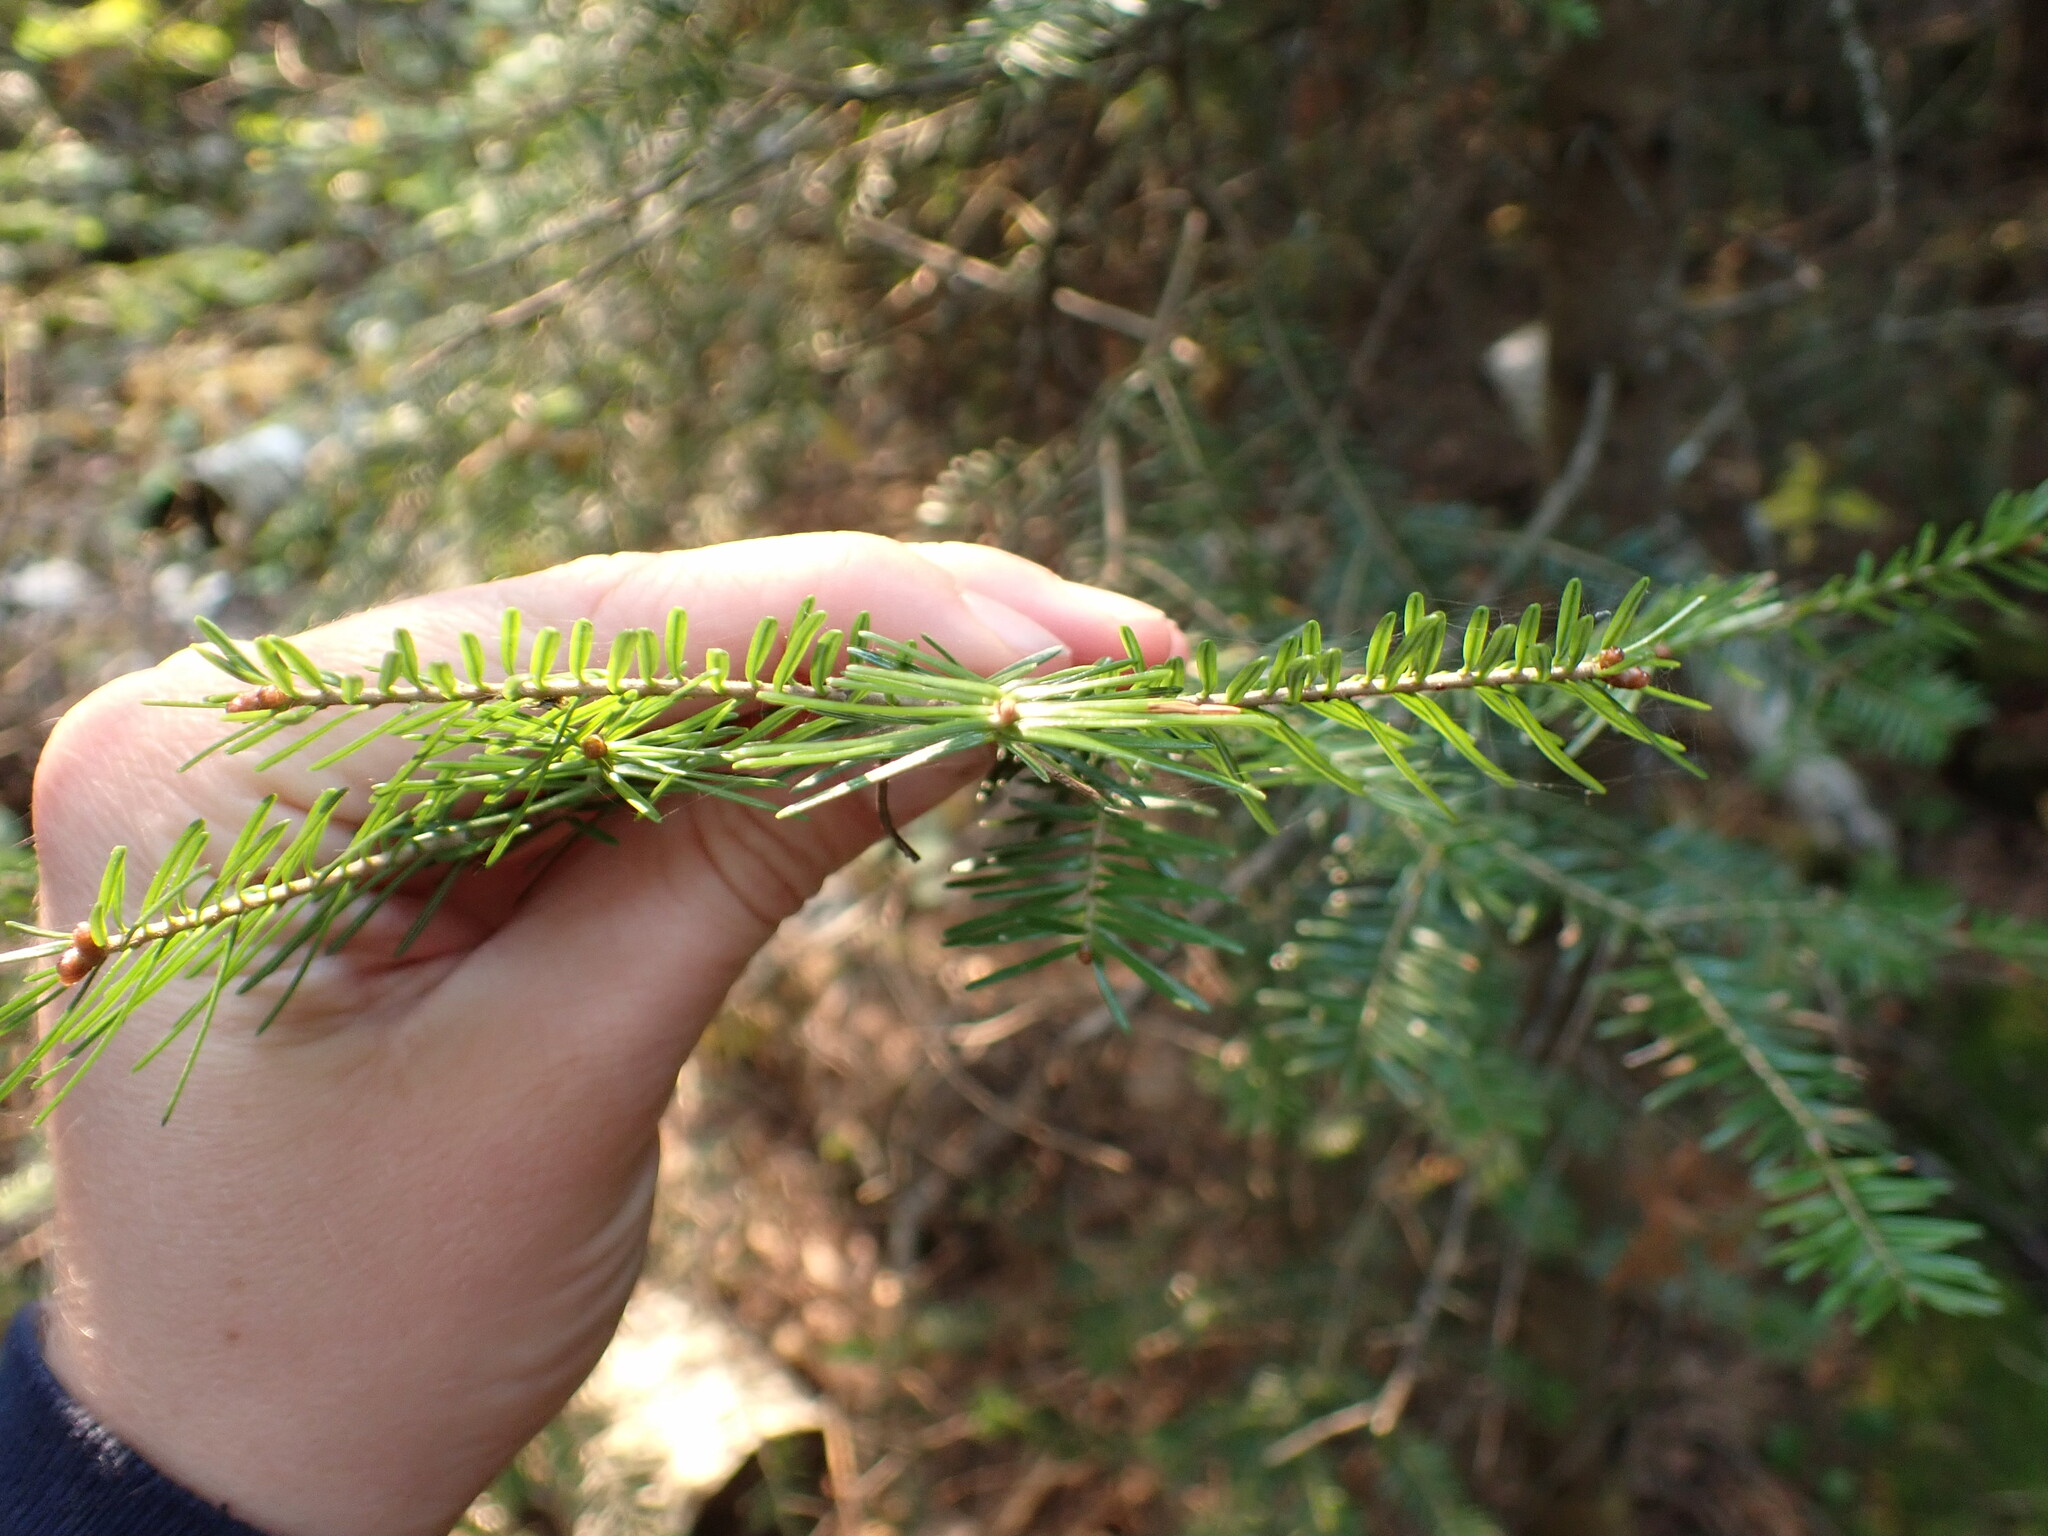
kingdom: Plantae
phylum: Tracheophyta
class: Pinopsida
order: Pinales
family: Pinaceae
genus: Abies
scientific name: Abies balsamea
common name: Balsam fir
